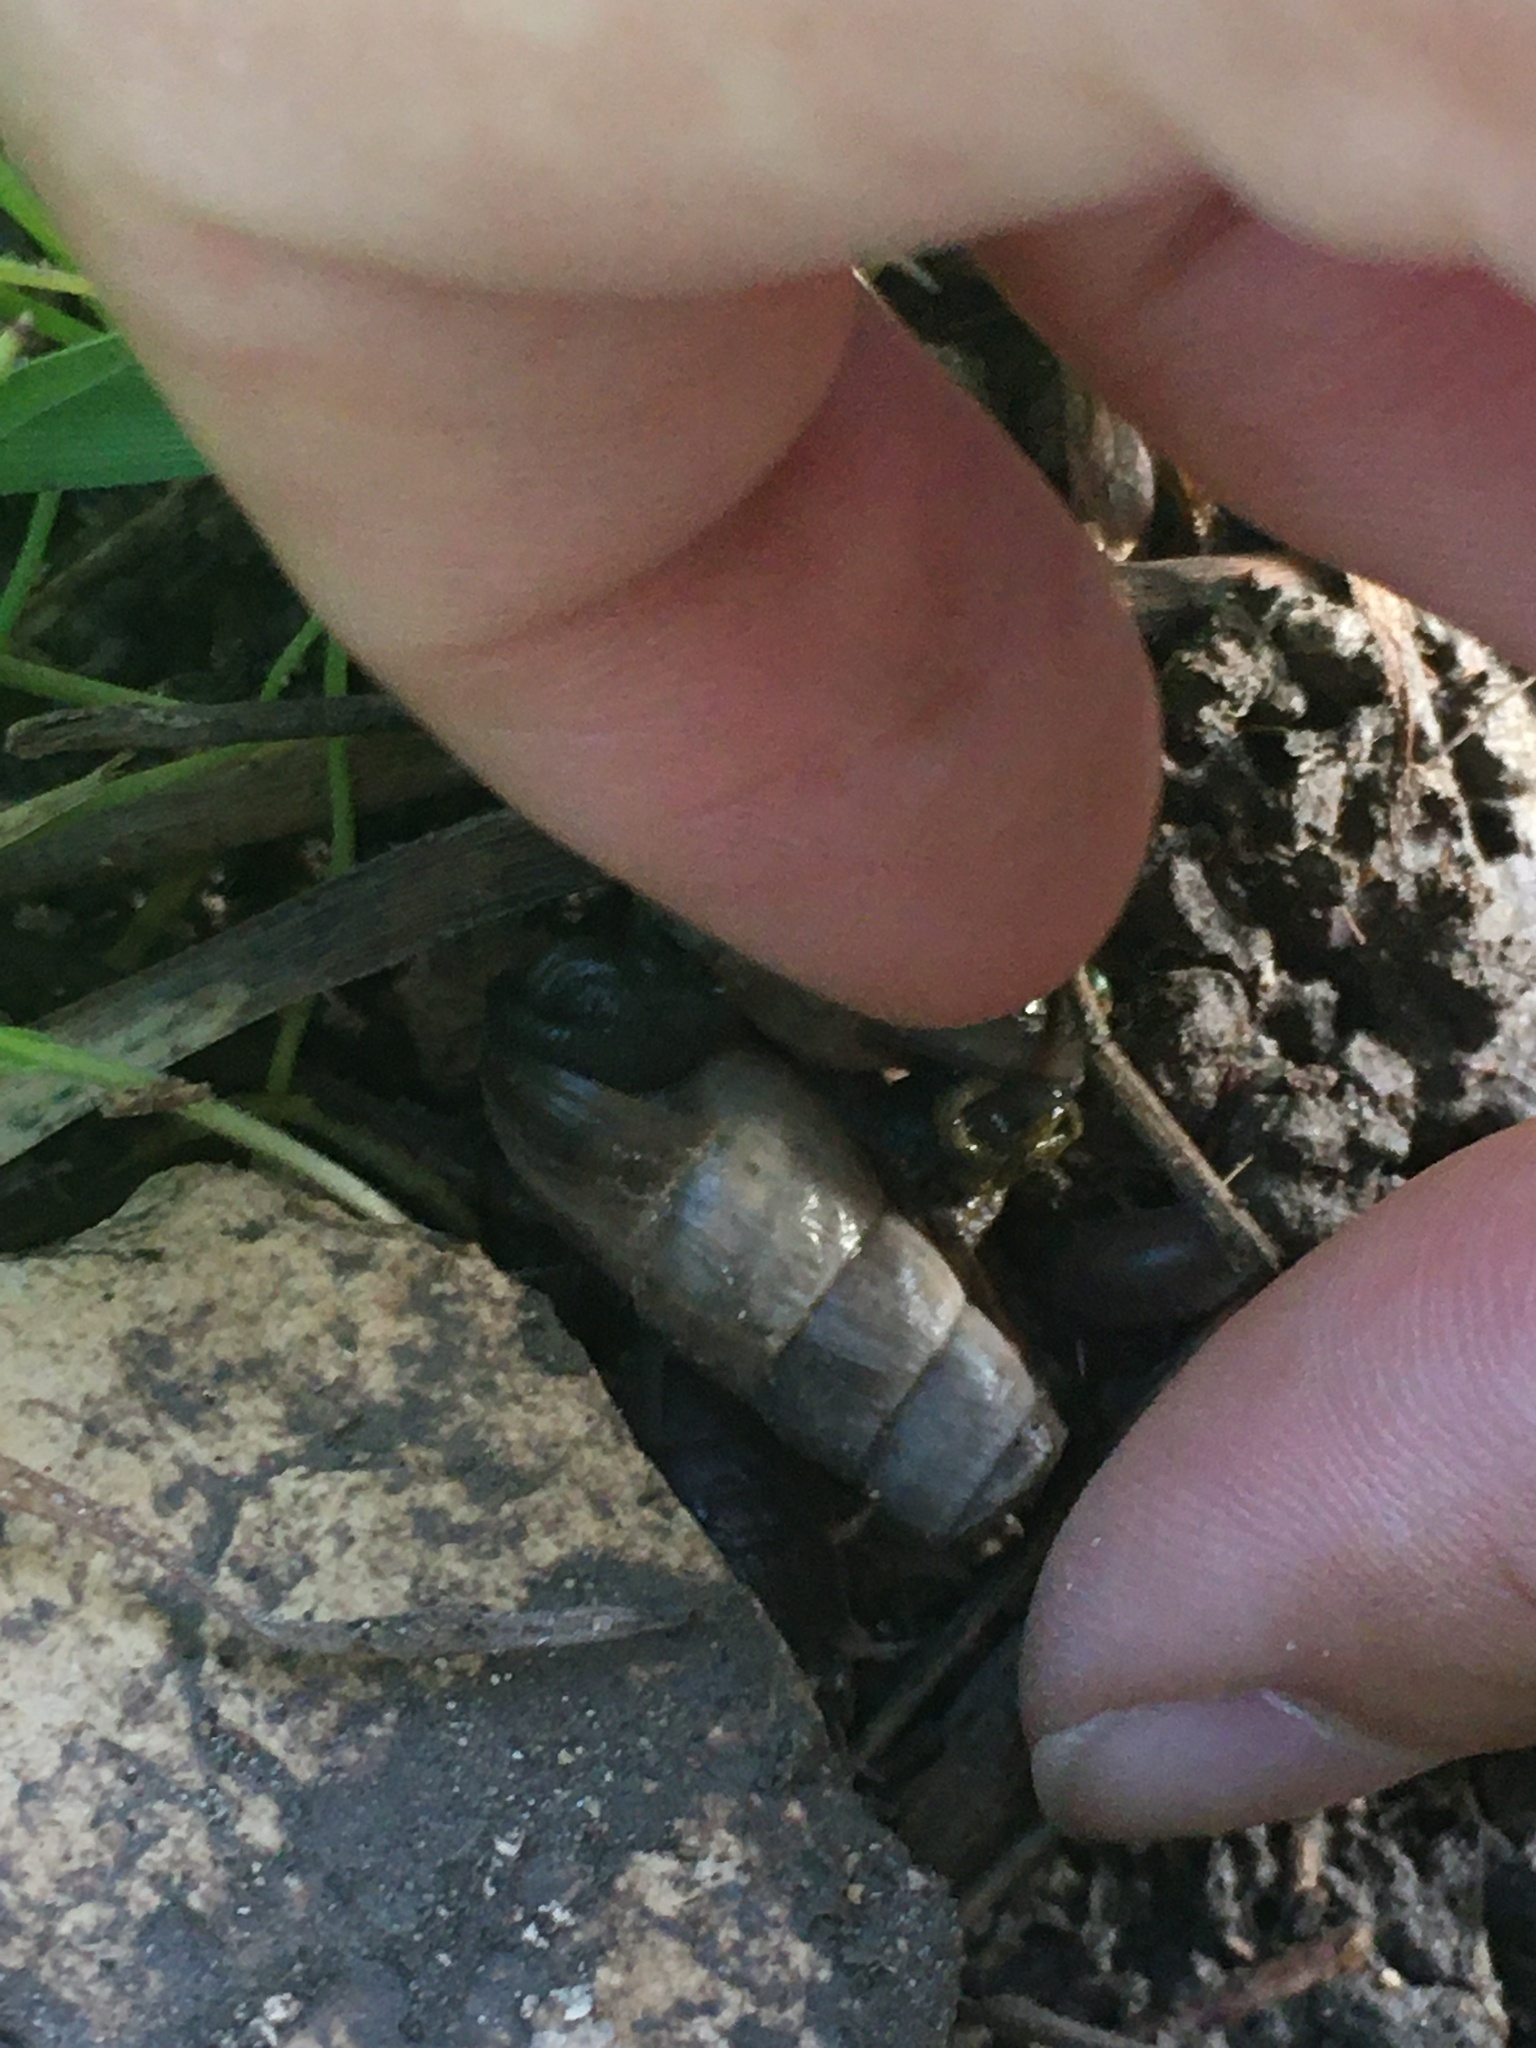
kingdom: Animalia
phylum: Mollusca
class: Gastropoda
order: Stylommatophora
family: Achatinidae
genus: Rumina
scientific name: Rumina decollata
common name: Decollate snail
